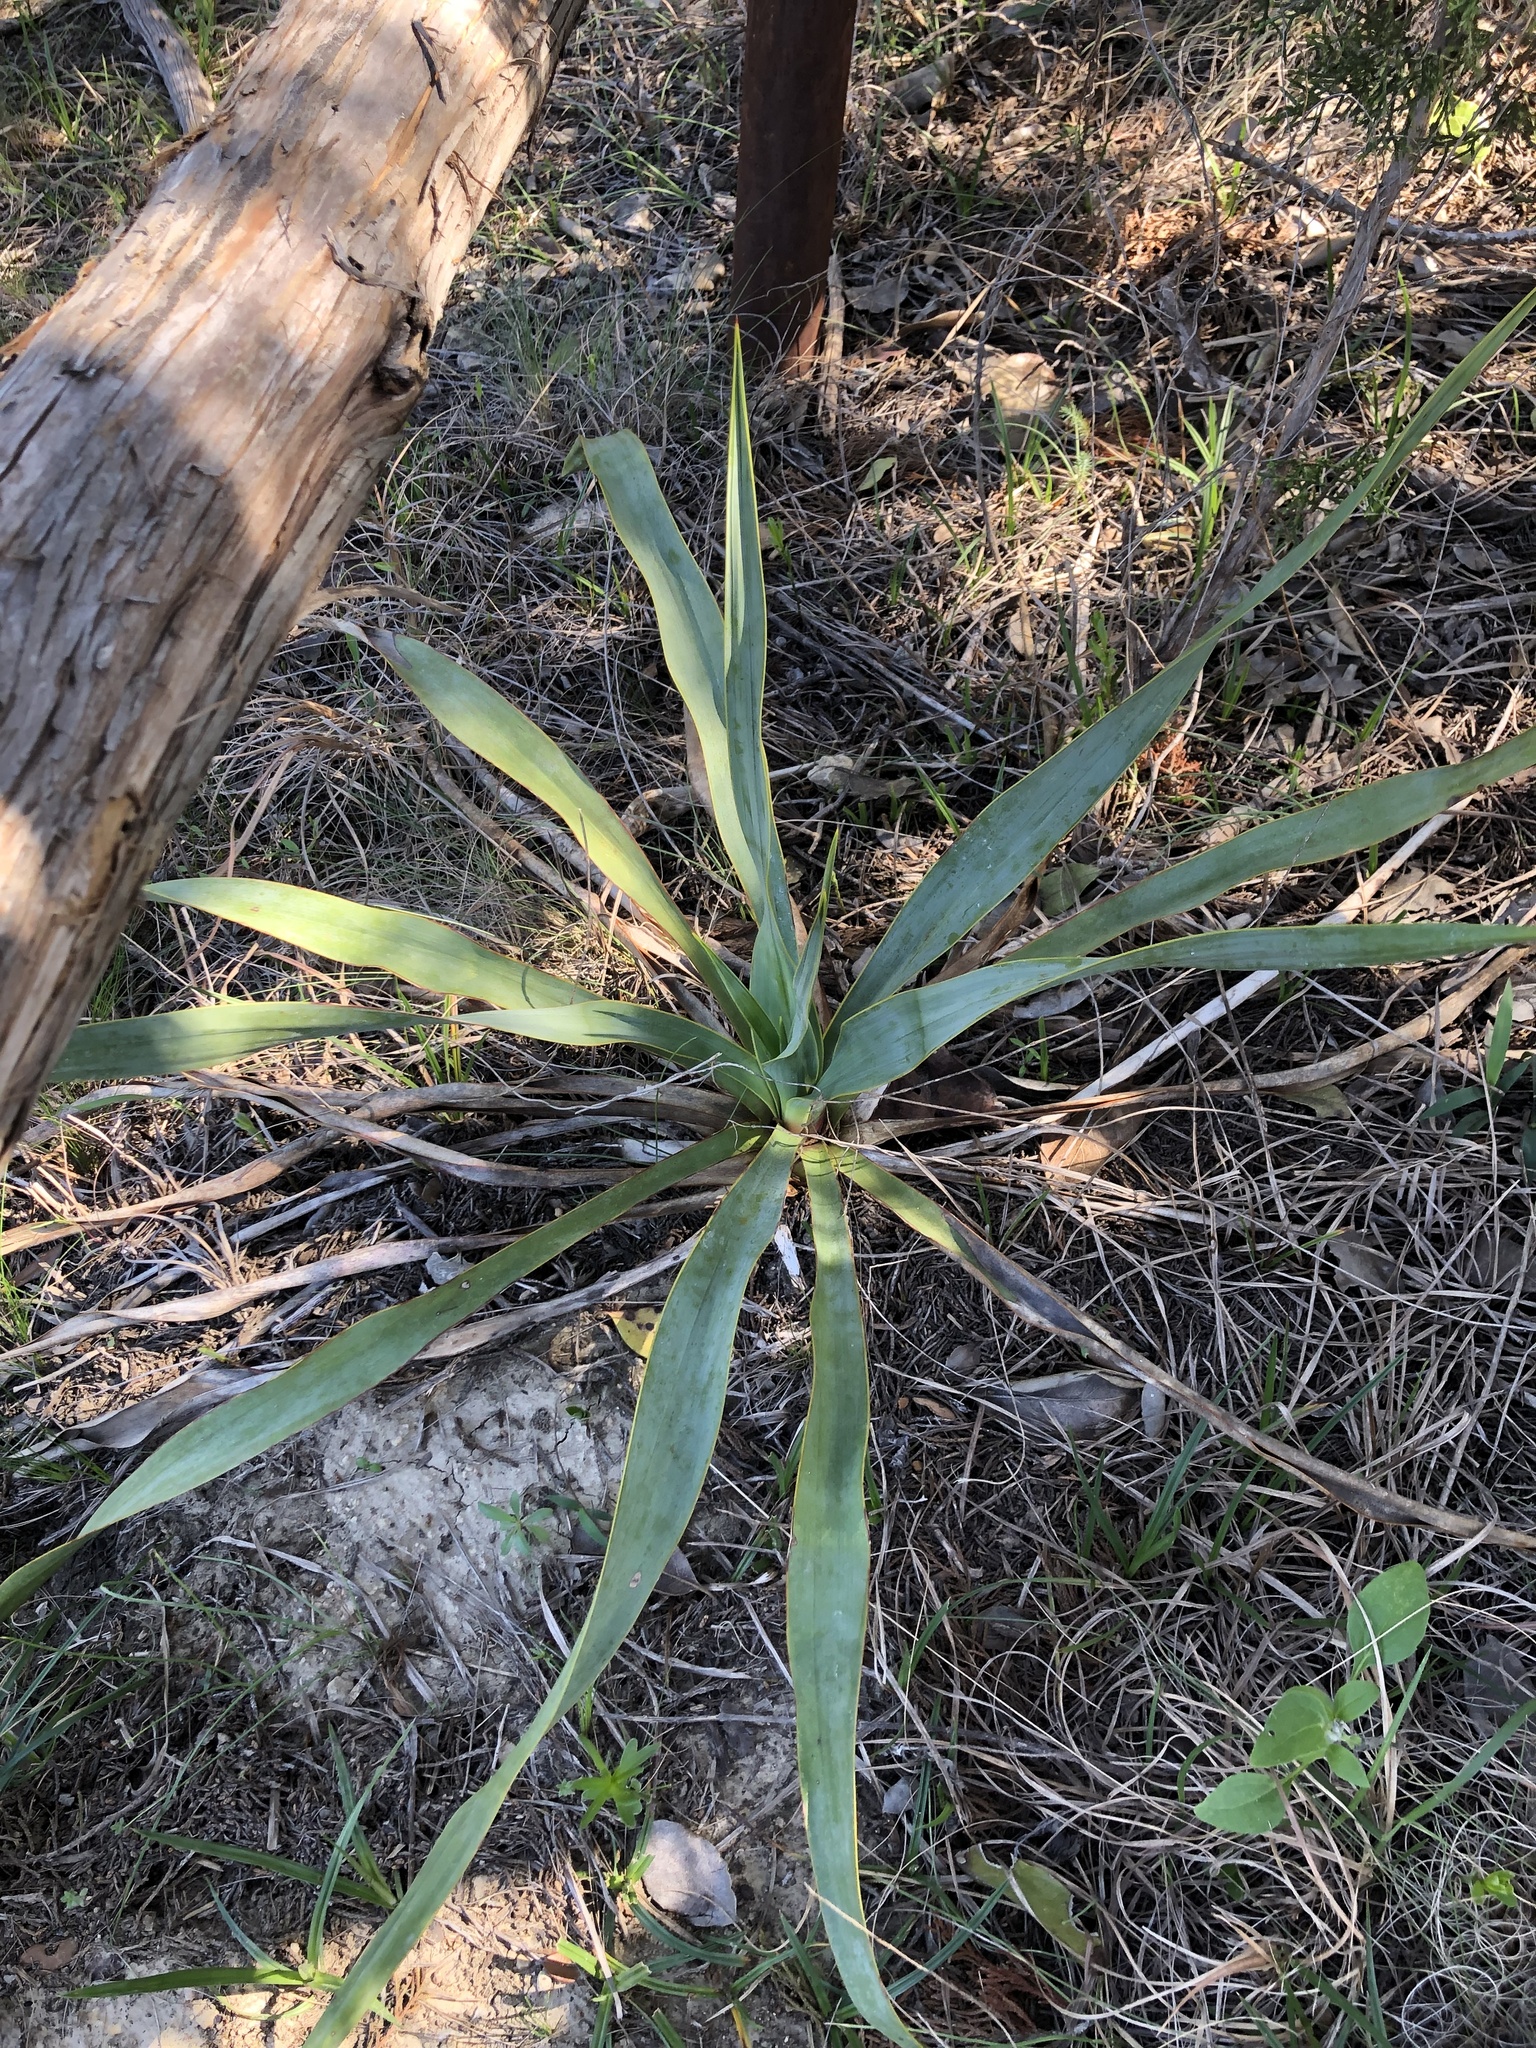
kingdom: Plantae
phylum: Tracheophyta
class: Liliopsida
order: Asparagales
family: Asparagaceae
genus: Yucca
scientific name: Yucca rupicola
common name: Twisted-leaf spanish-dagger
